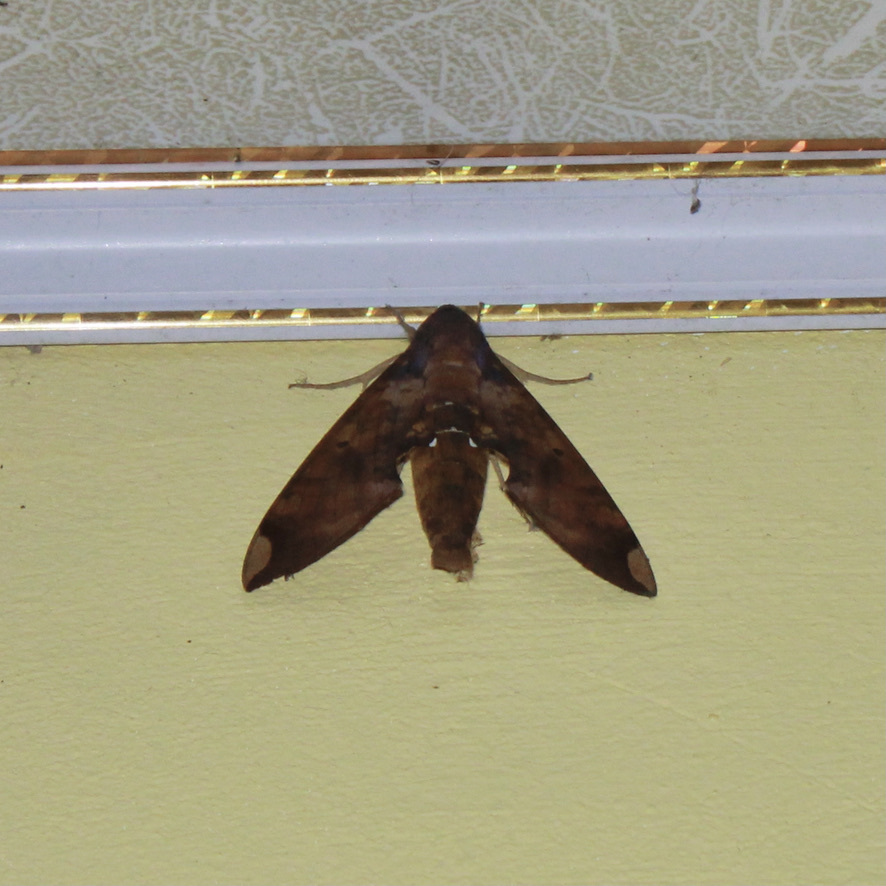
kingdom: Animalia
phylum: Arthropoda
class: Insecta
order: Lepidoptera
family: Sphingidae
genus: Pachylia
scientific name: Pachylia ficus
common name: Fig sphinx
